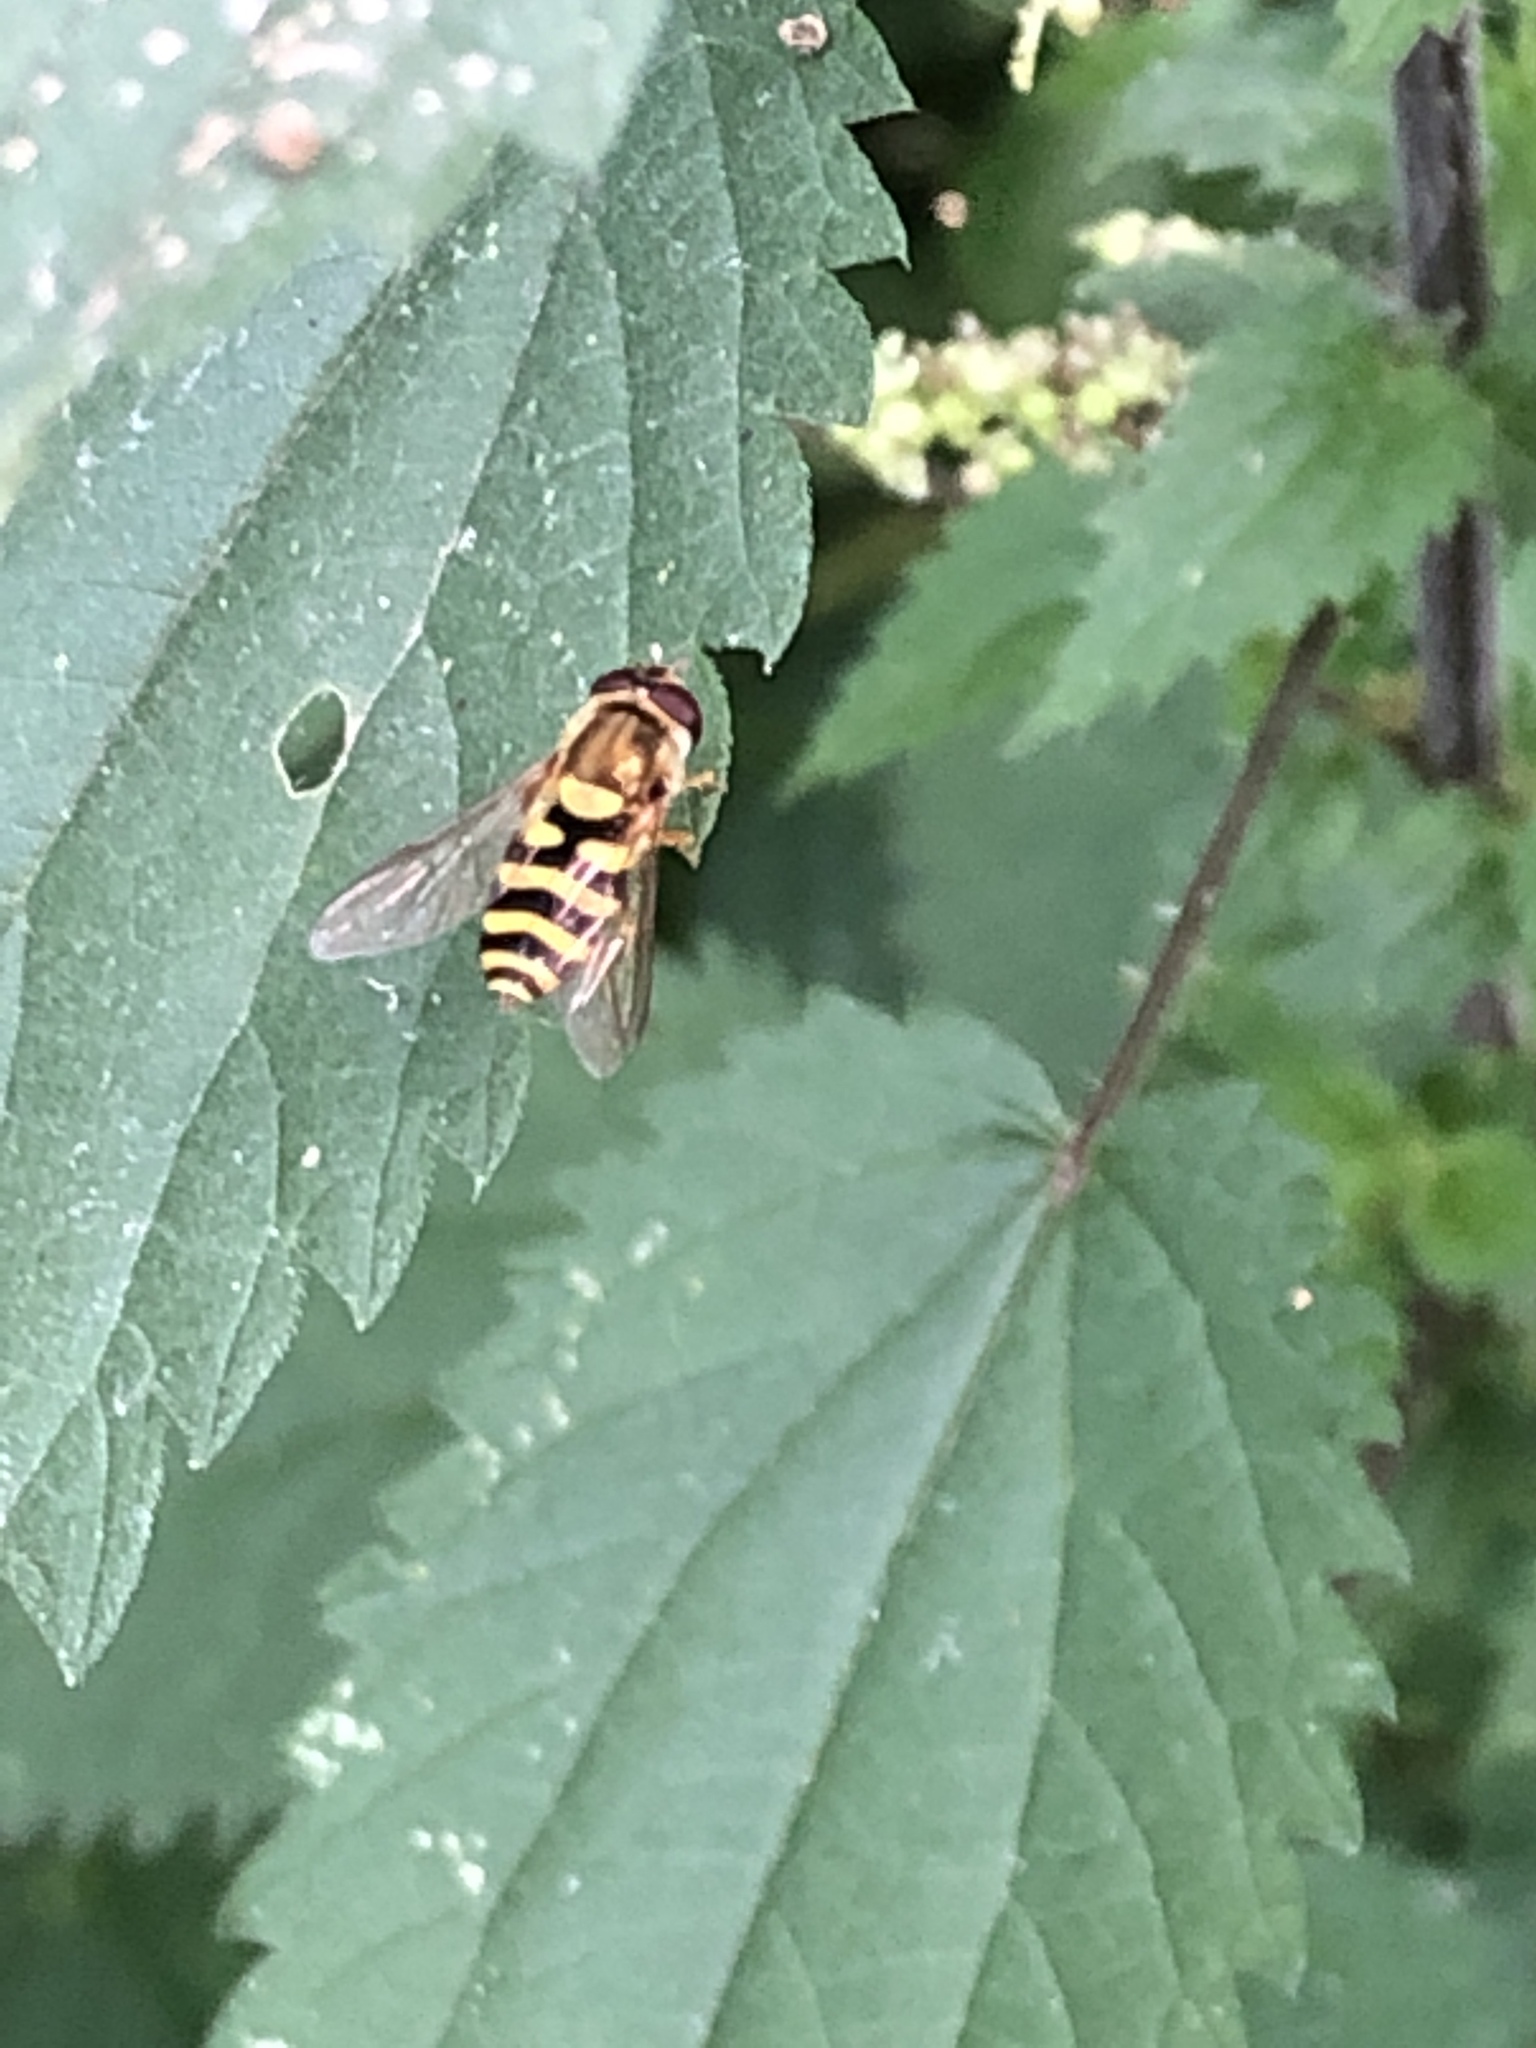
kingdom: Animalia
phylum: Arthropoda
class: Insecta
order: Diptera
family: Syrphidae
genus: Syrphus
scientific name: Syrphus
